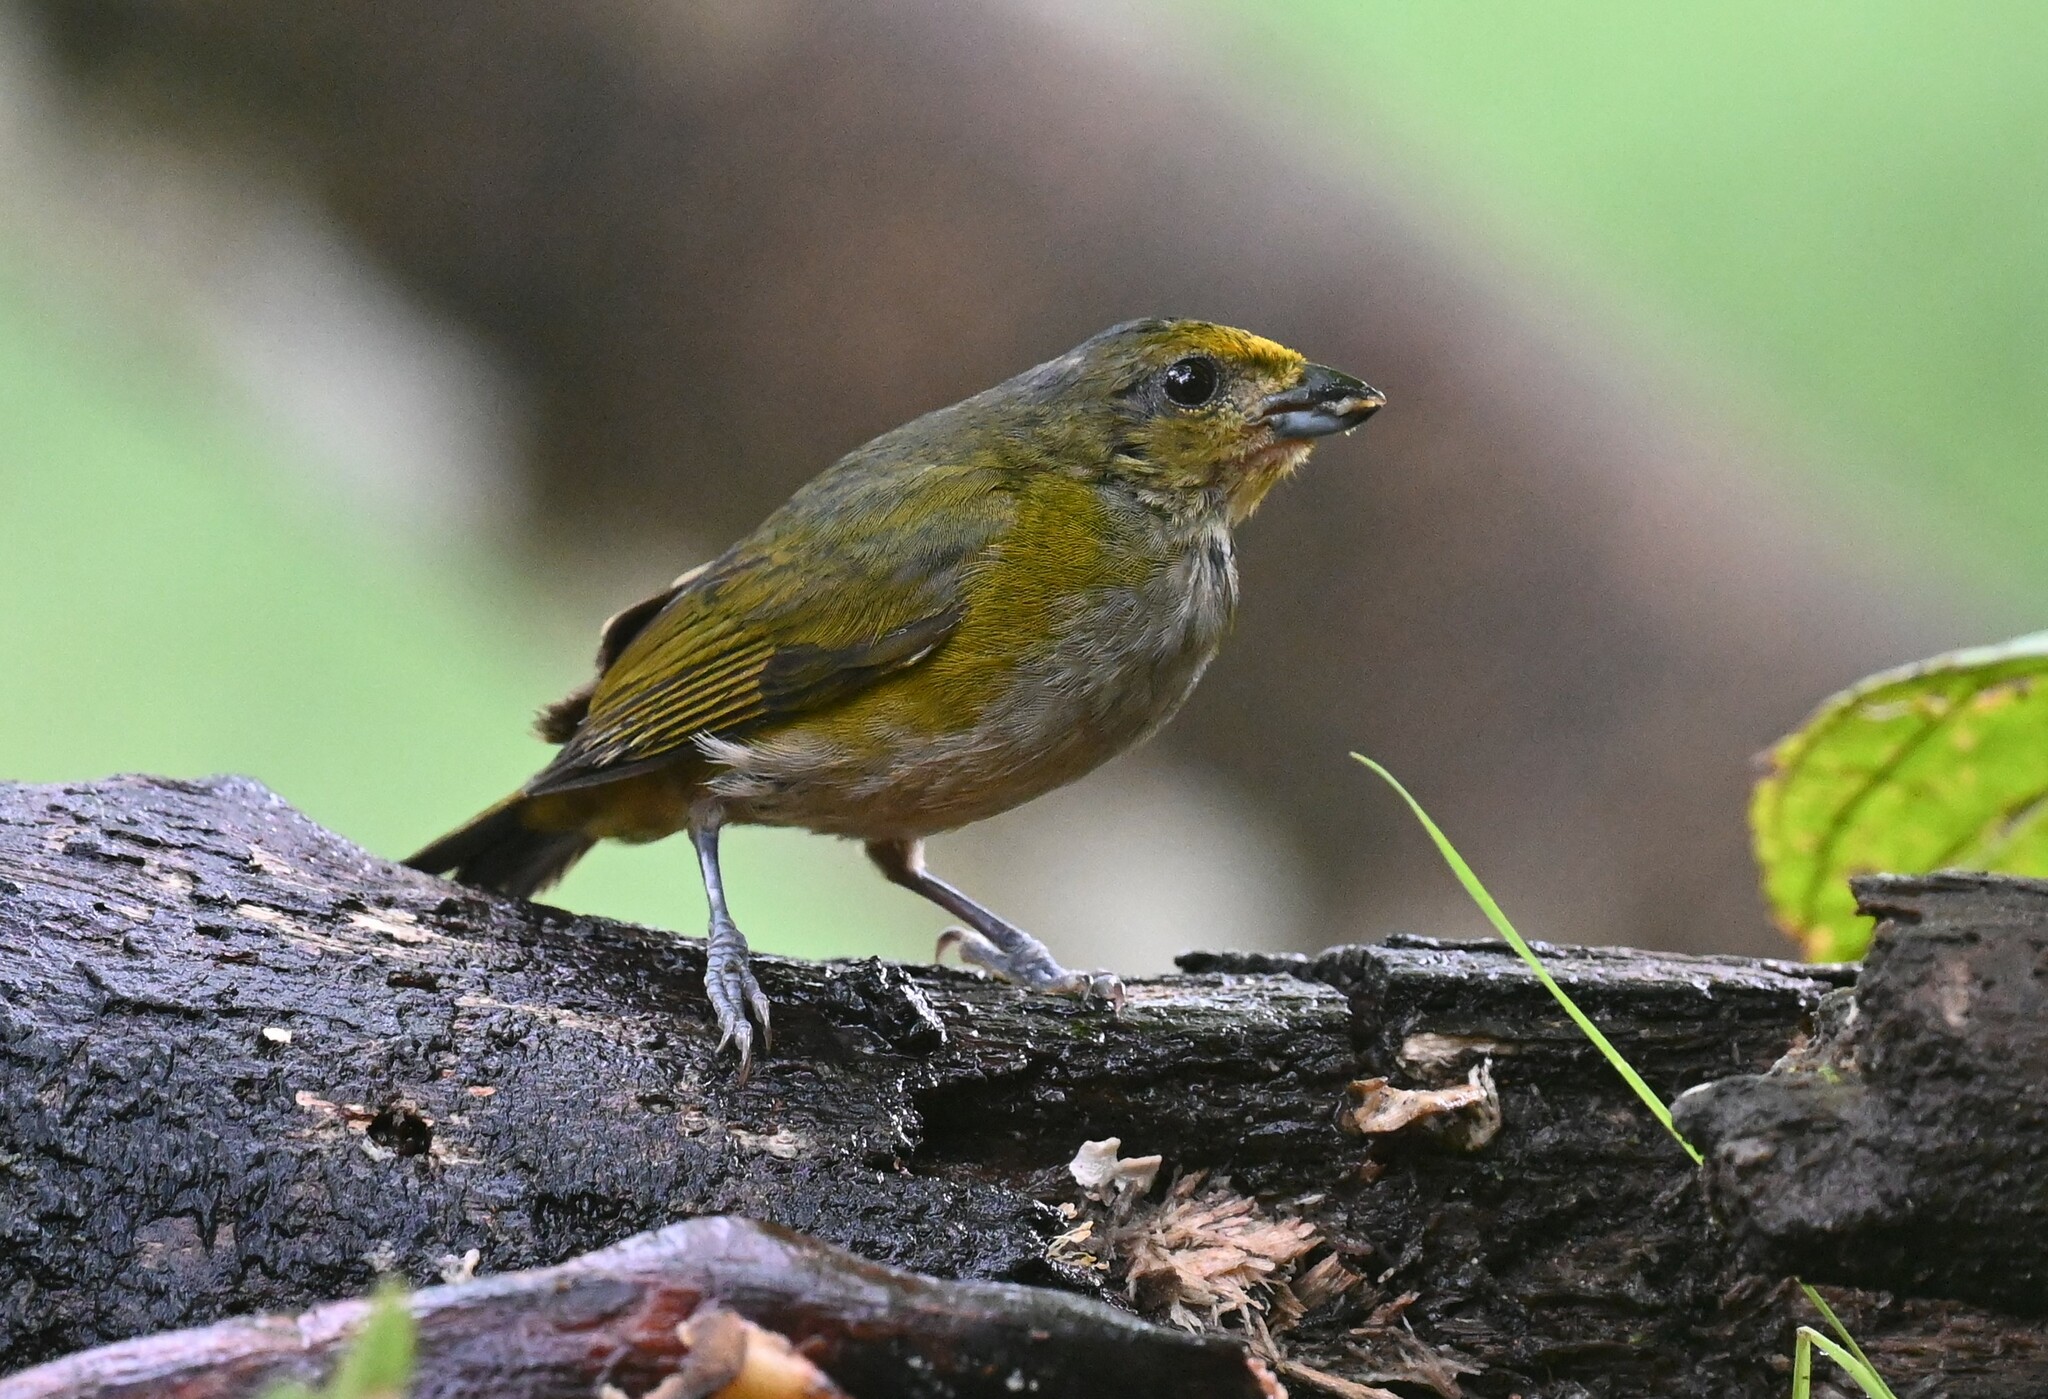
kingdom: Animalia
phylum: Chordata
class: Aves
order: Passeriformes
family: Fringillidae
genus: Euphonia
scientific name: Euphonia xanthogaster
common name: Orange-bellied euphonia
